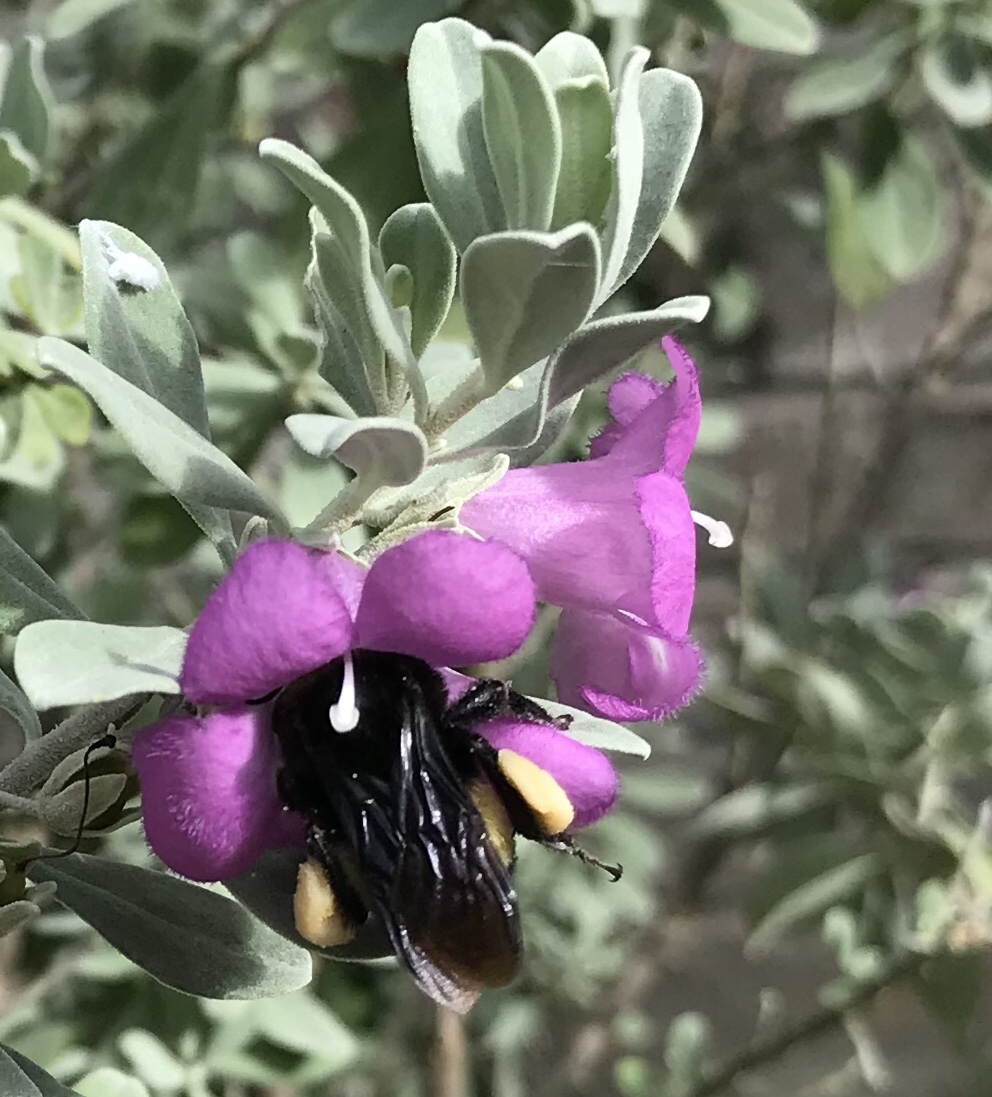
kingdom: Animalia
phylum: Arthropoda
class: Insecta
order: Hymenoptera
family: Apidae
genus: Bombus
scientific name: Bombus pensylvanicus
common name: Bumble bee
